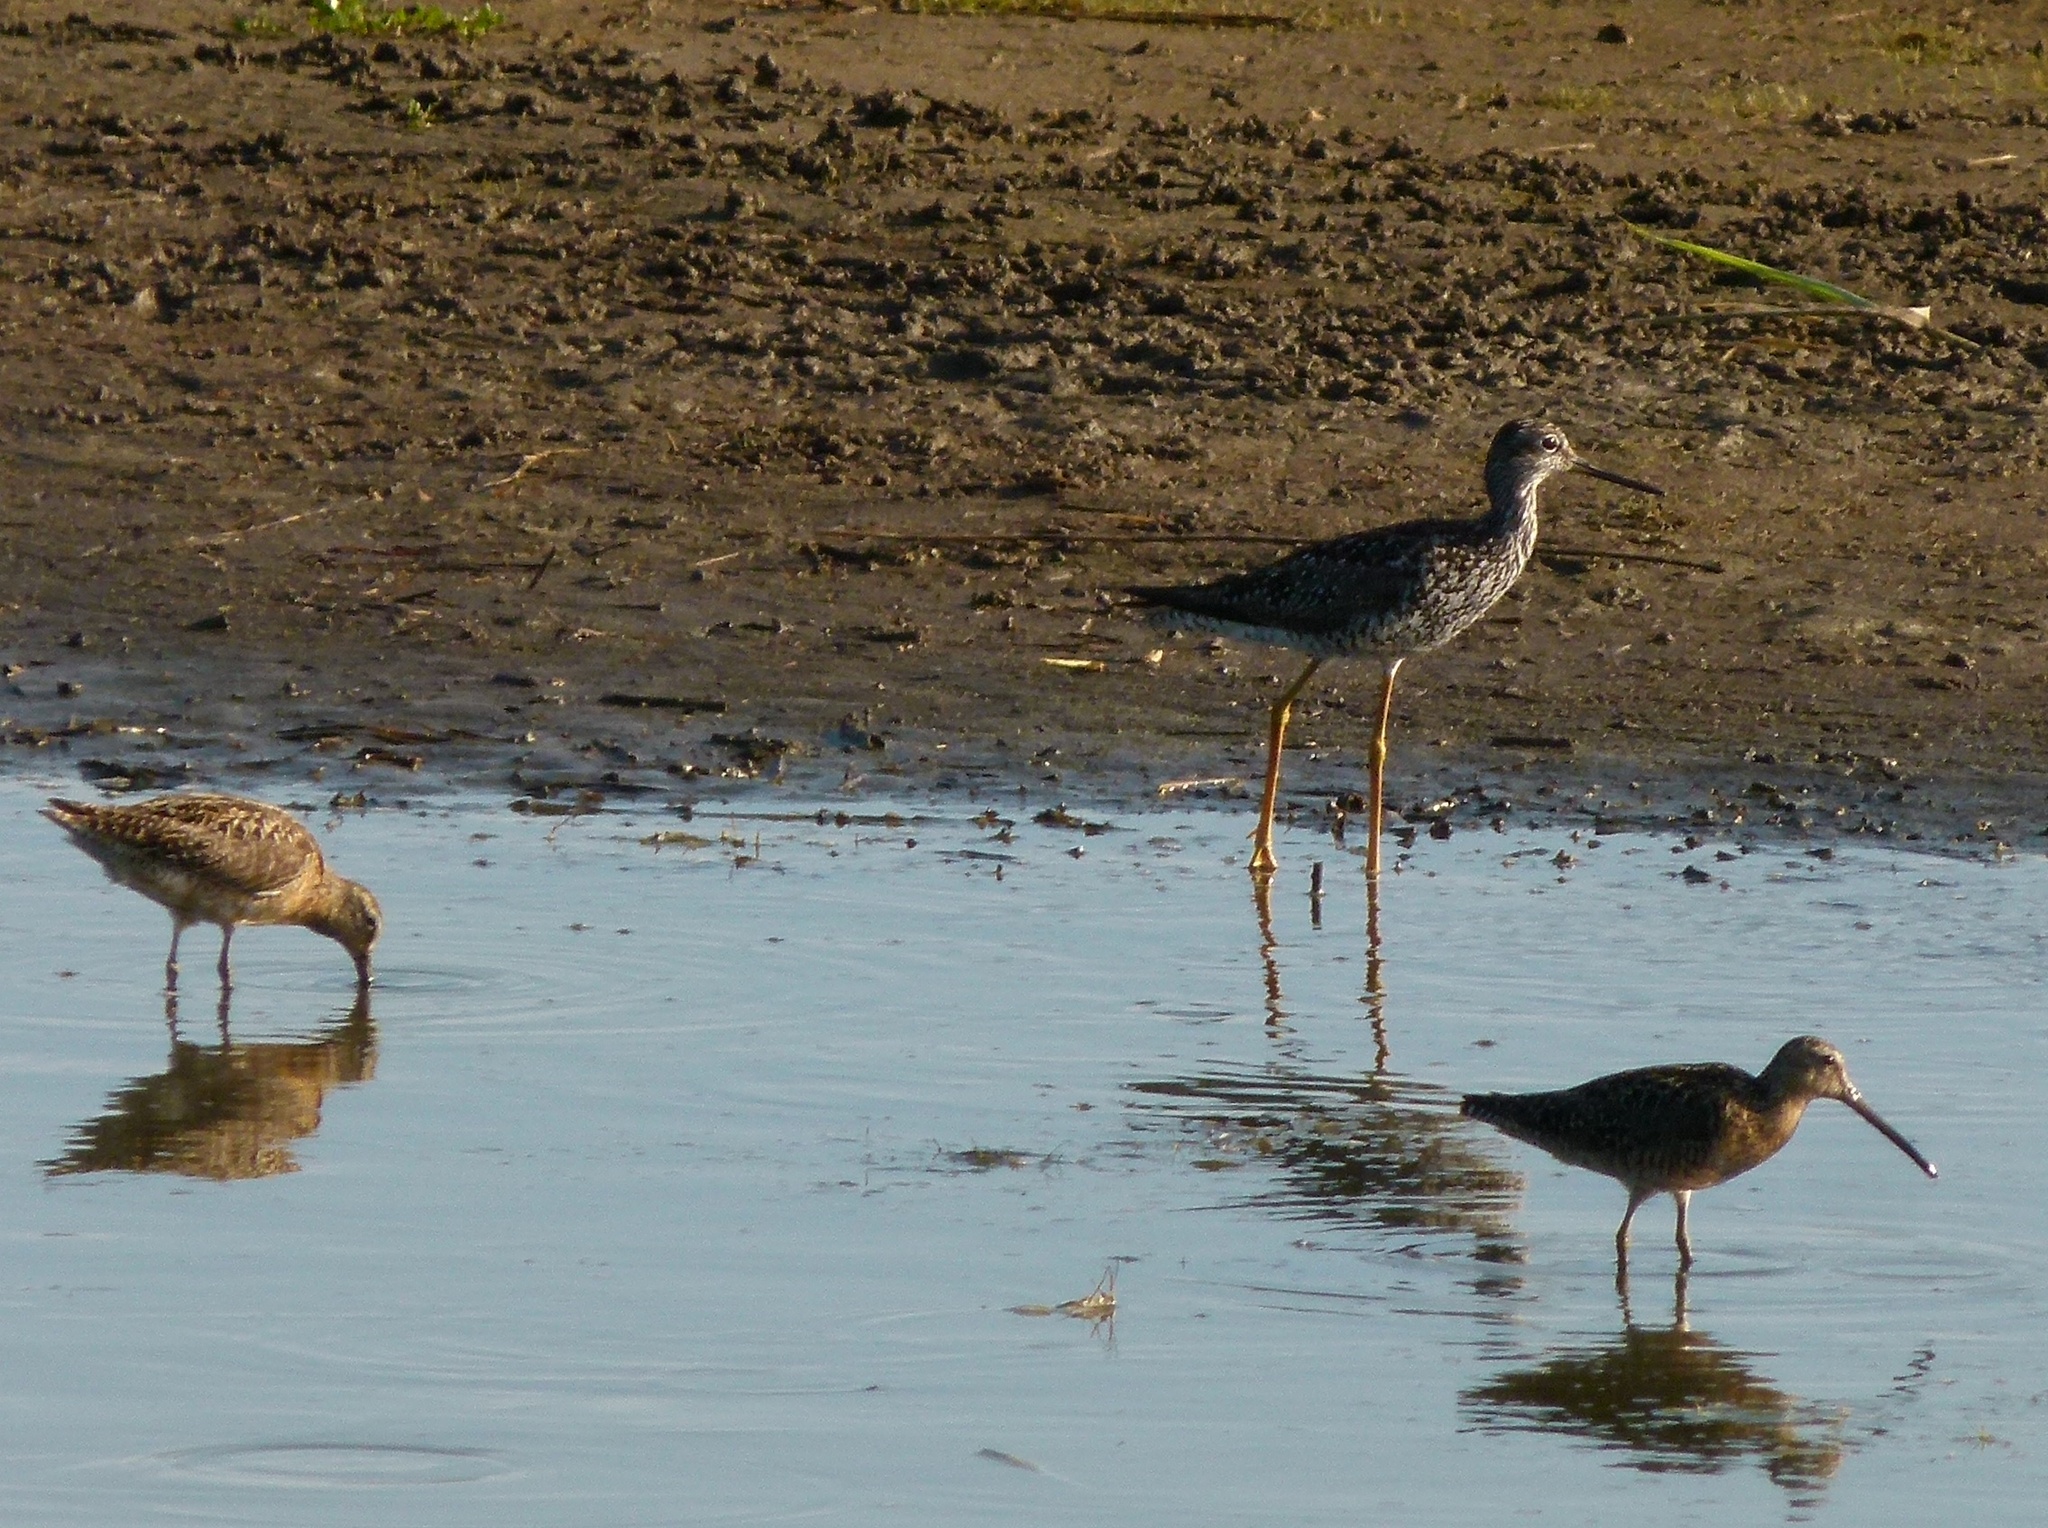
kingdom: Animalia
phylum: Chordata
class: Aves
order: Charadriiformes
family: Scolopacidae
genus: Tringa
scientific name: Tringa melanoleuca
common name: Greater yellowlegs
